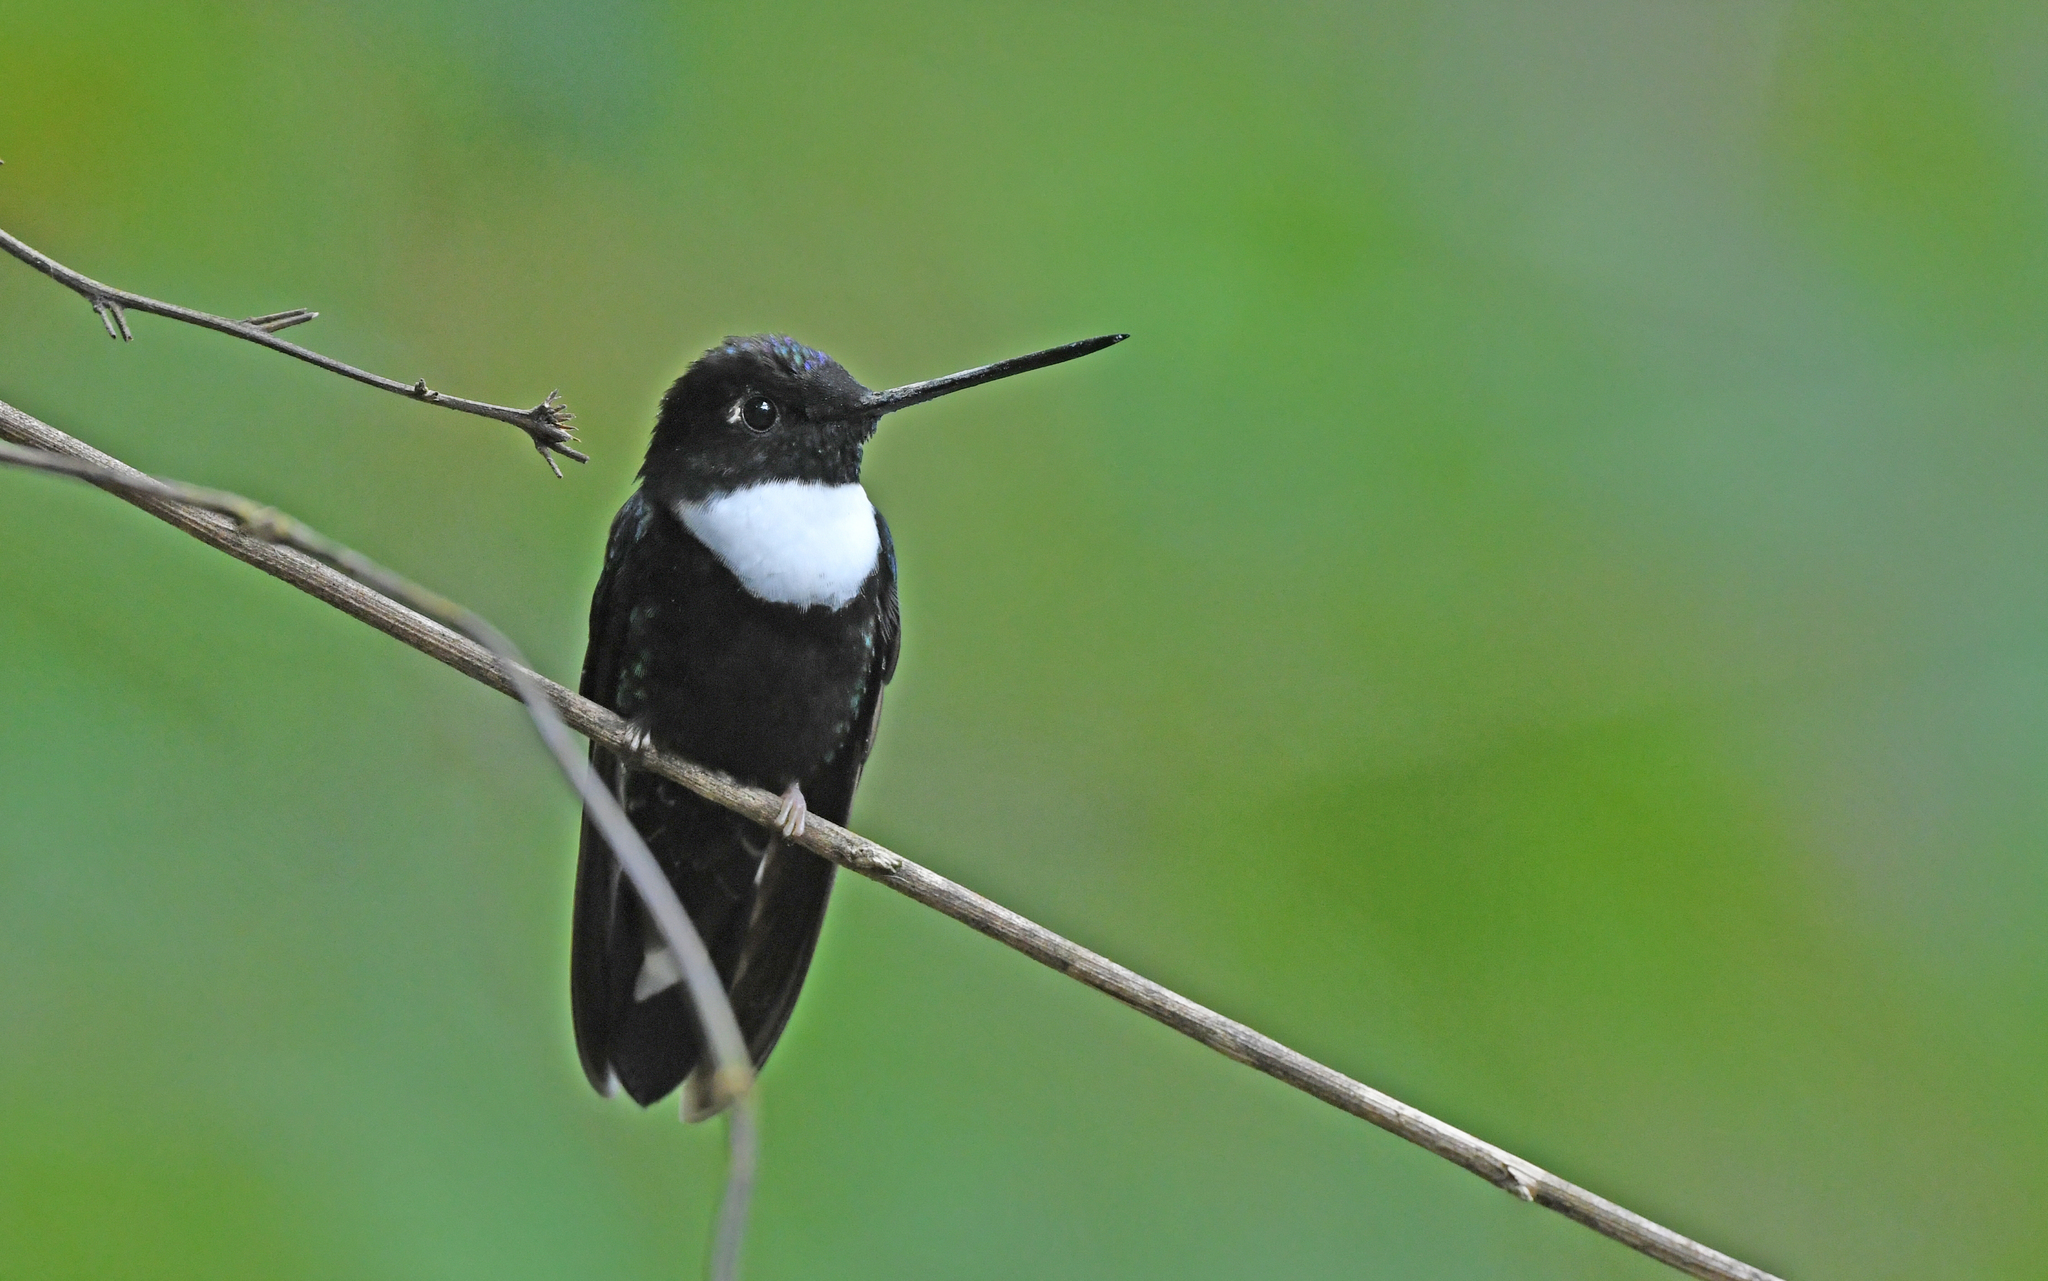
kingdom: Animalia
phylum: Chordata
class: Aves
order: Apodiformes
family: Trochilidae
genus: Coeligena
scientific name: Coeligena torquata
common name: Collared inca
